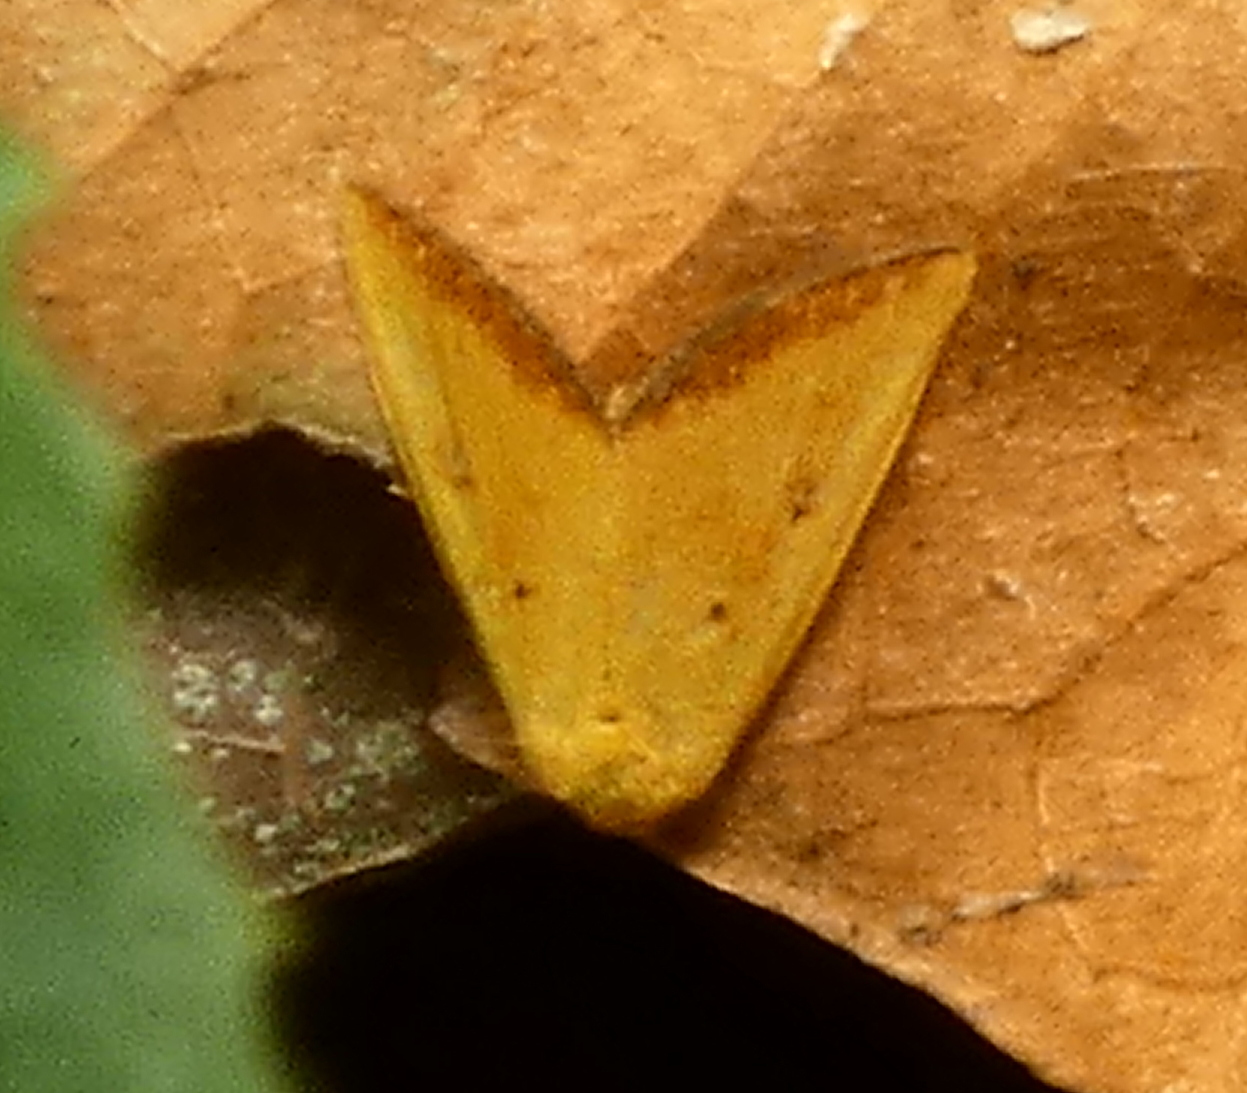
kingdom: Animalia
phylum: Arthropoda
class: Insecta
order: Lepidoptera
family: Noctuidae
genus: Marimatha
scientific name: Marimatha botyoides
